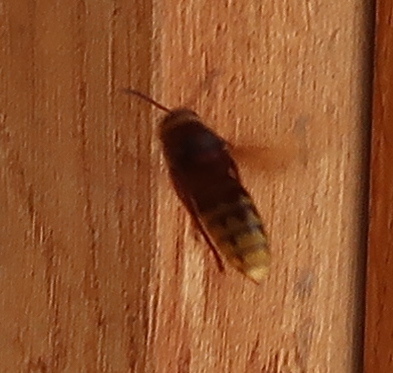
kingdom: Animalia
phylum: Arthropoda
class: Insecta
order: Hymenoptera
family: Vespidae
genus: Vespa
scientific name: Vespa crabro
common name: Hornet
